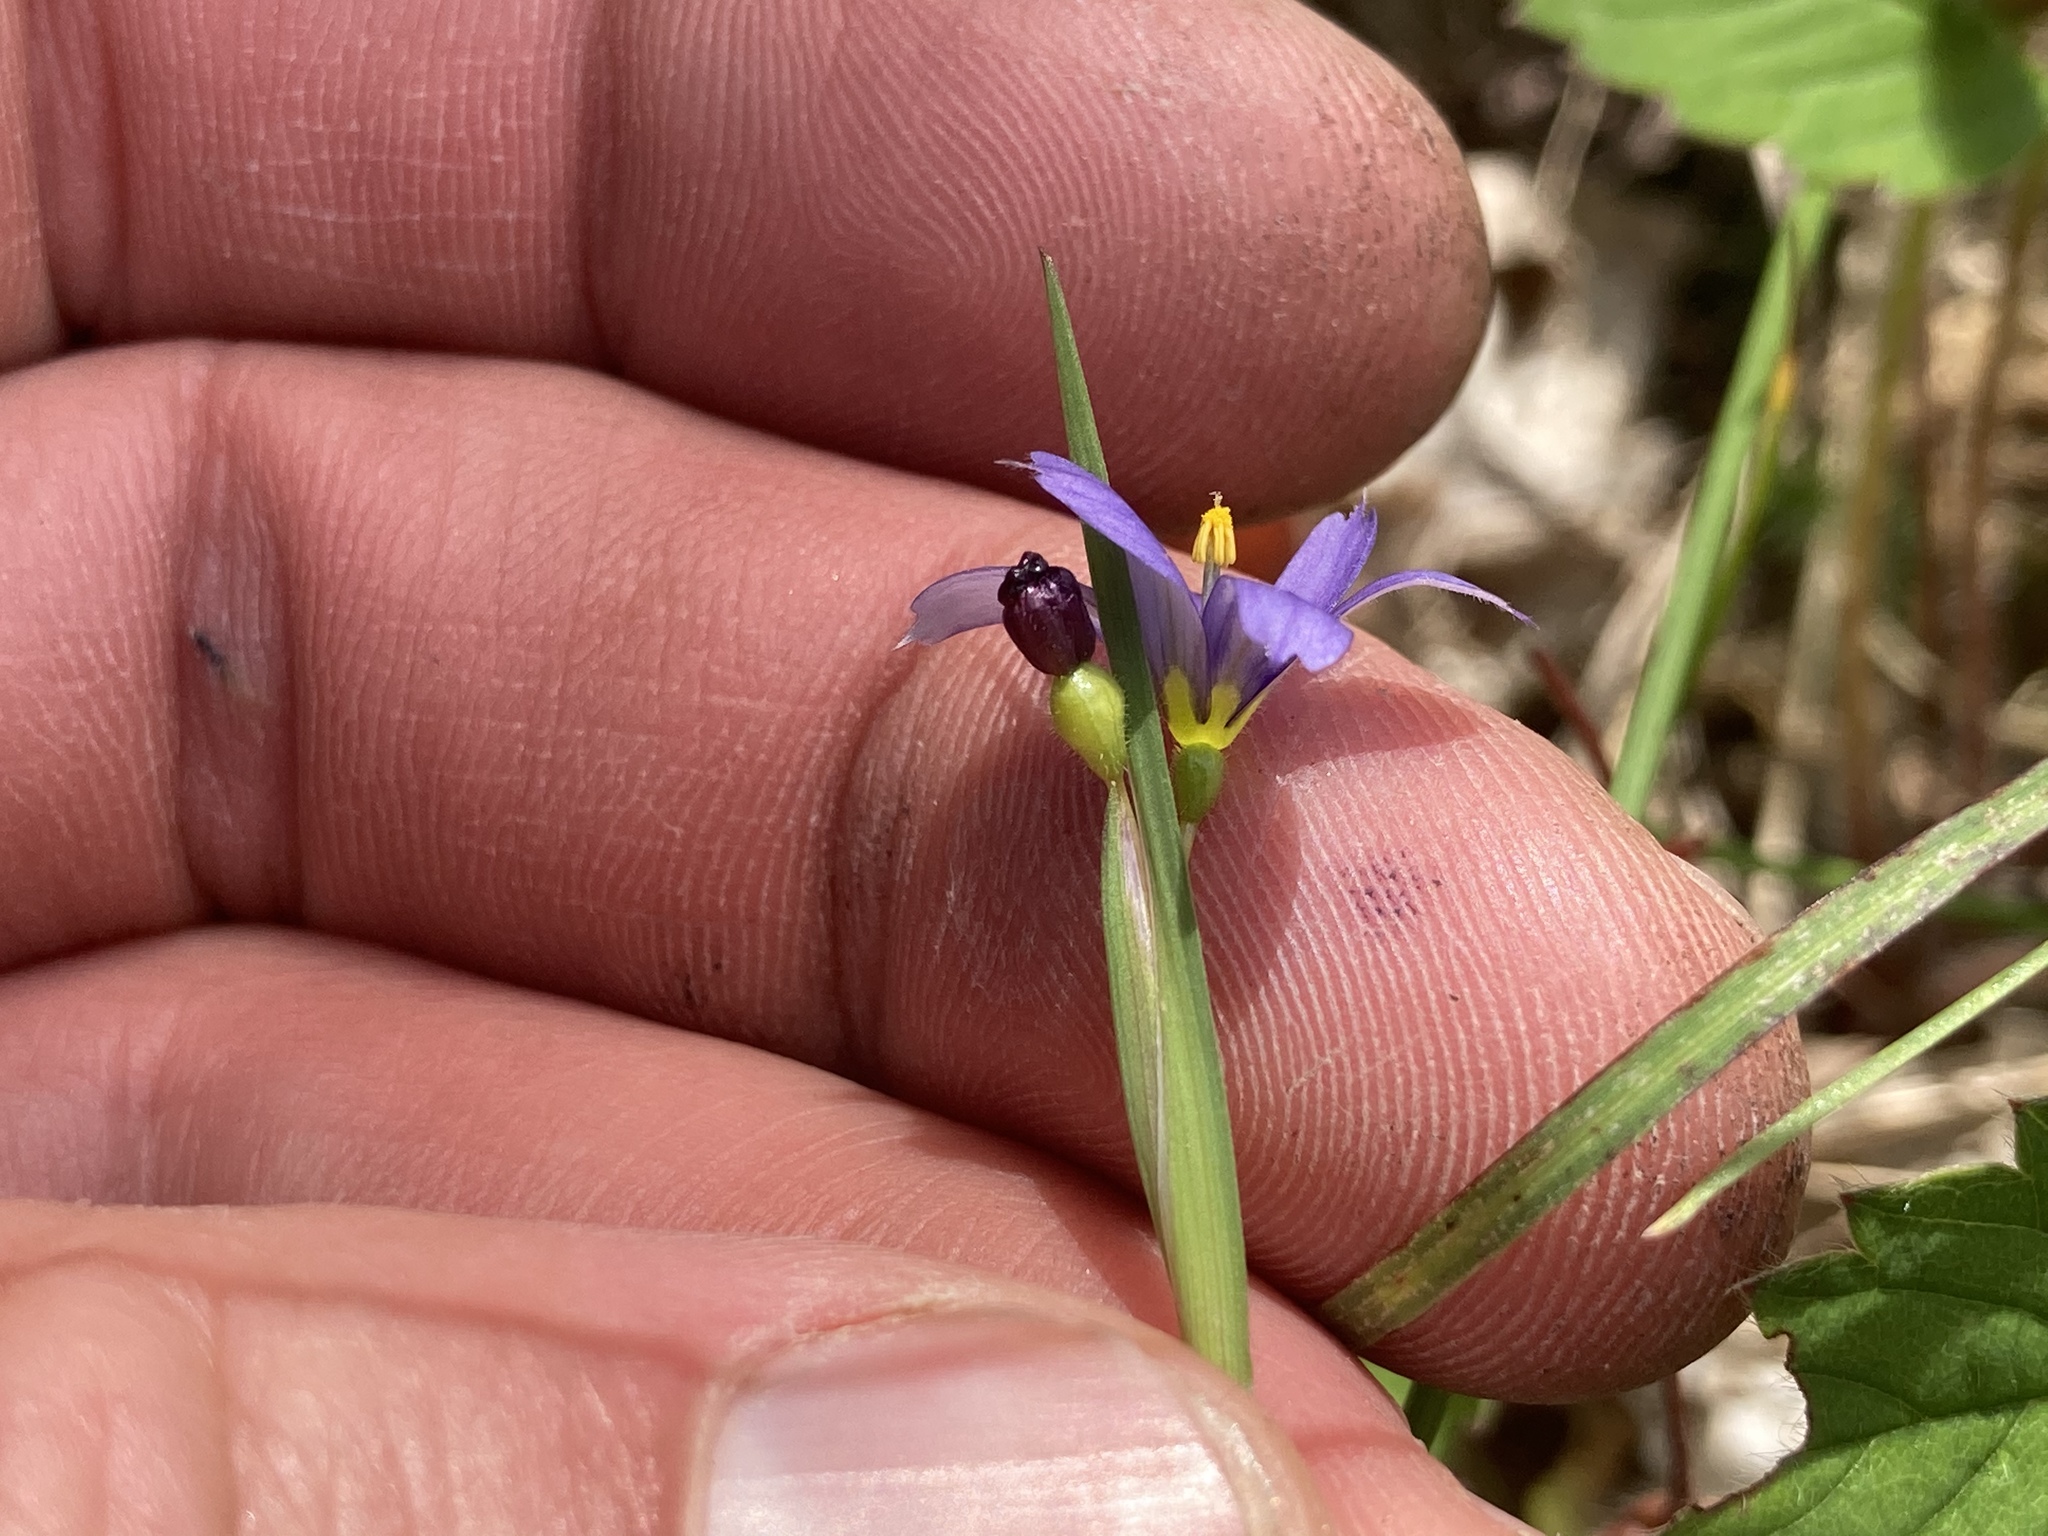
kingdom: Plantae
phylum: Tracheophyta
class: Liliopsida
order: Asparagales
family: Iridaceae
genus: Sisyrinchium
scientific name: Sisyrinchium montanum
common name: American blue-eyed-grass
